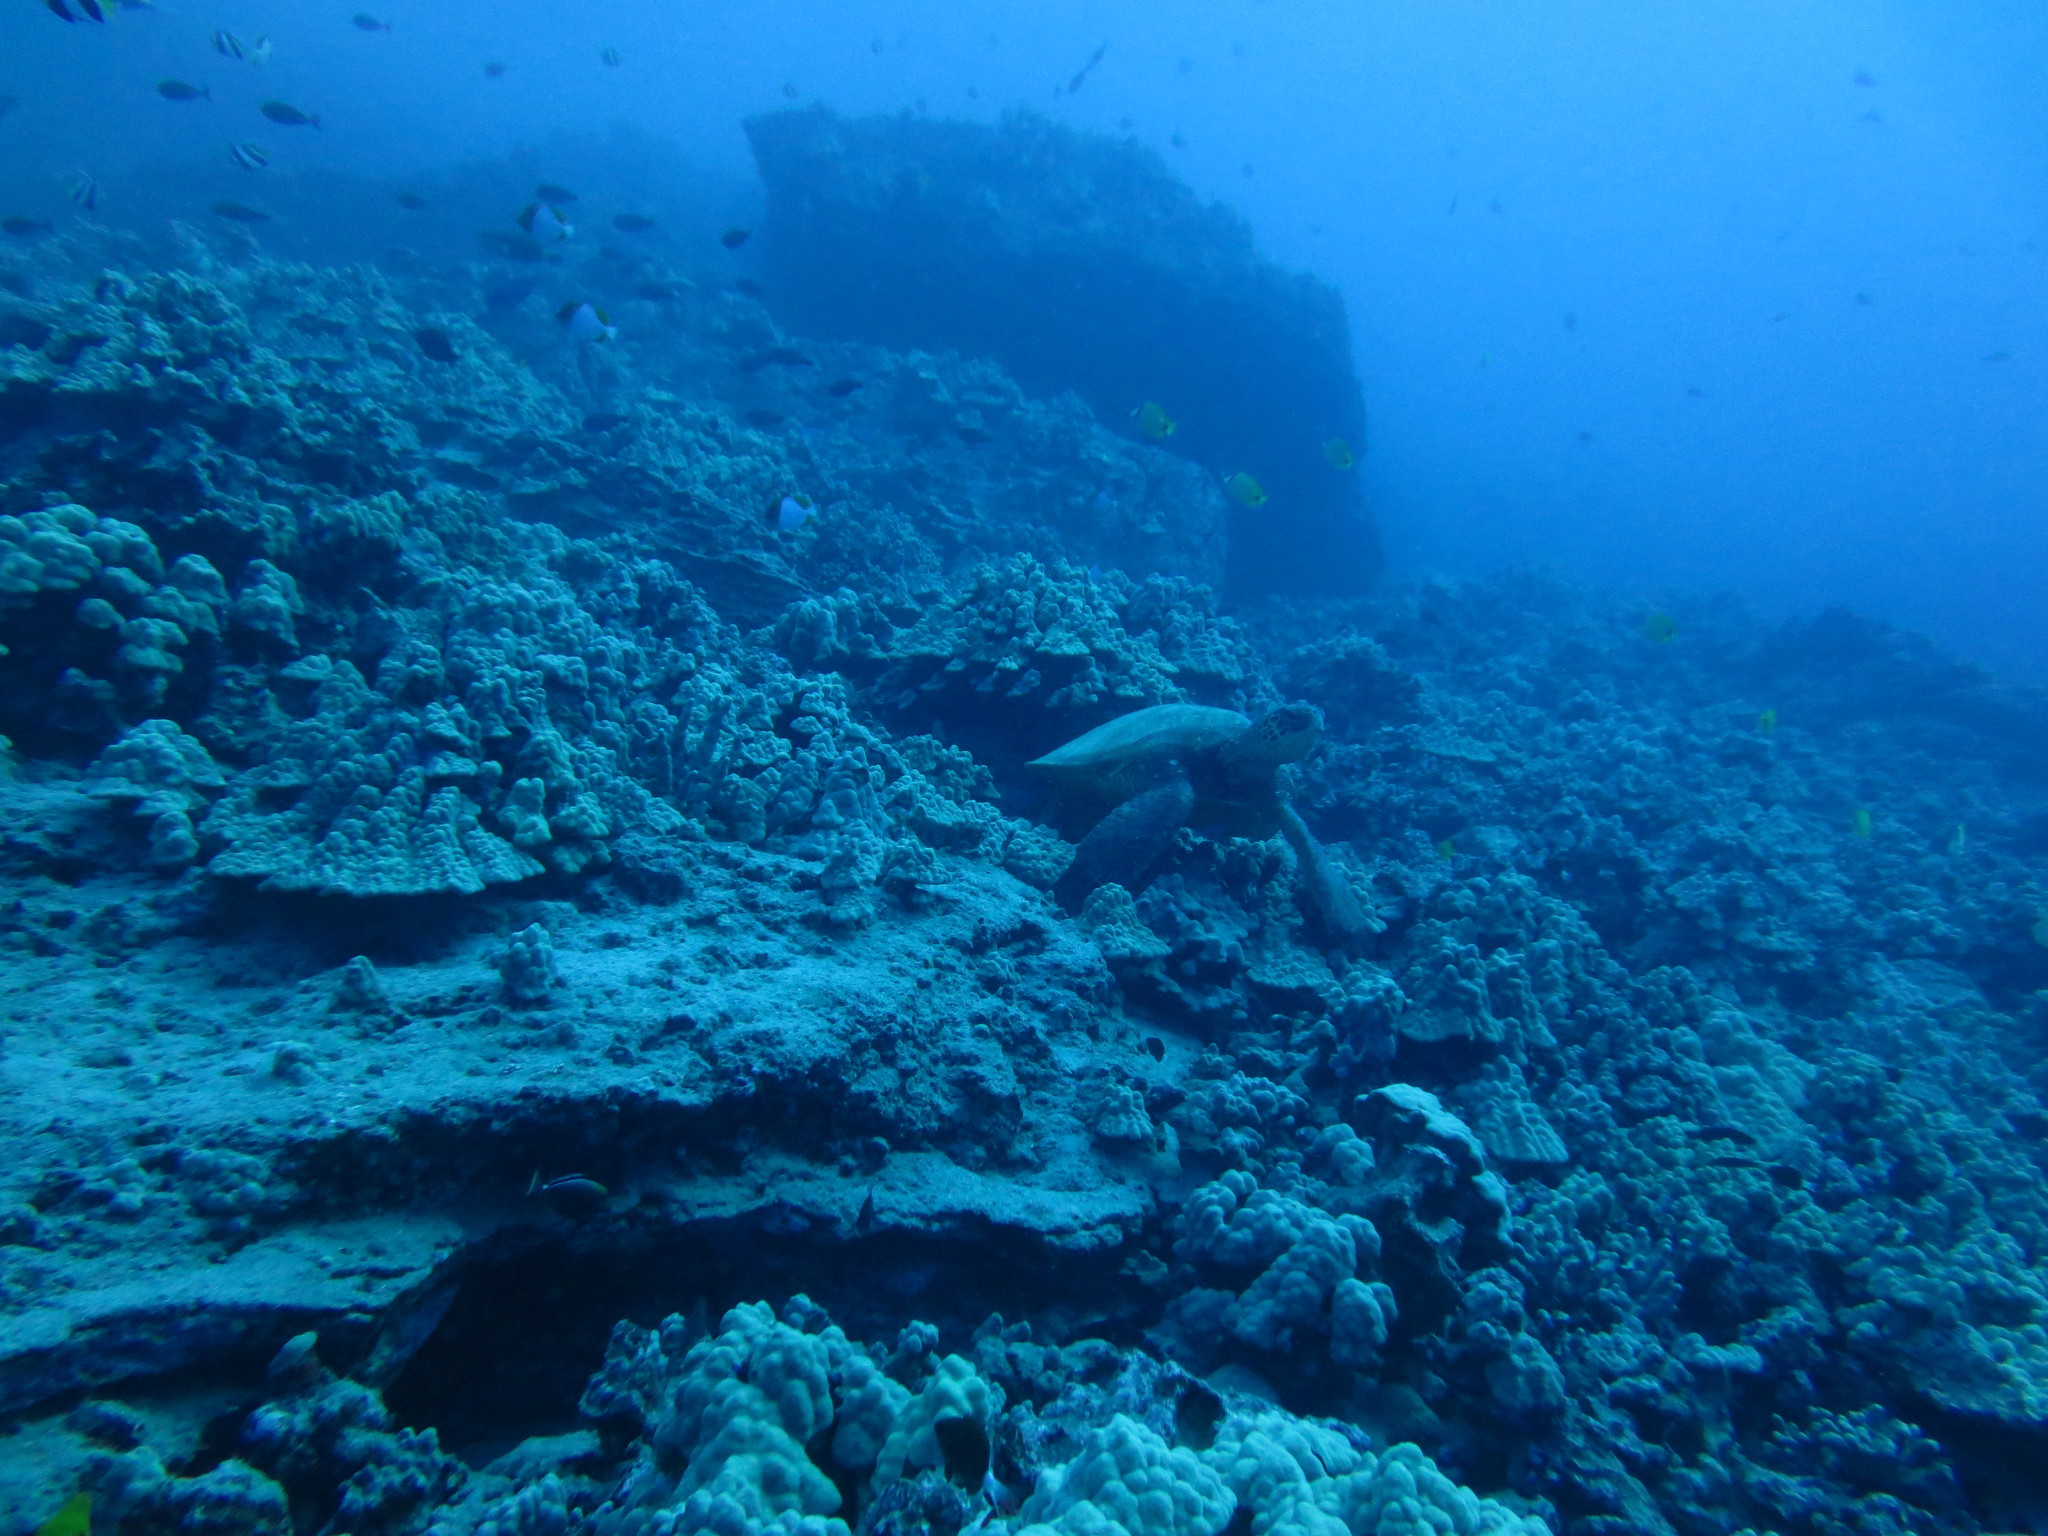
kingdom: Animalia
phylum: Chordata
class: Testudines
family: Cheloniidae
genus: Chelonia
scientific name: Chelonia mydas
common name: Green turtle
